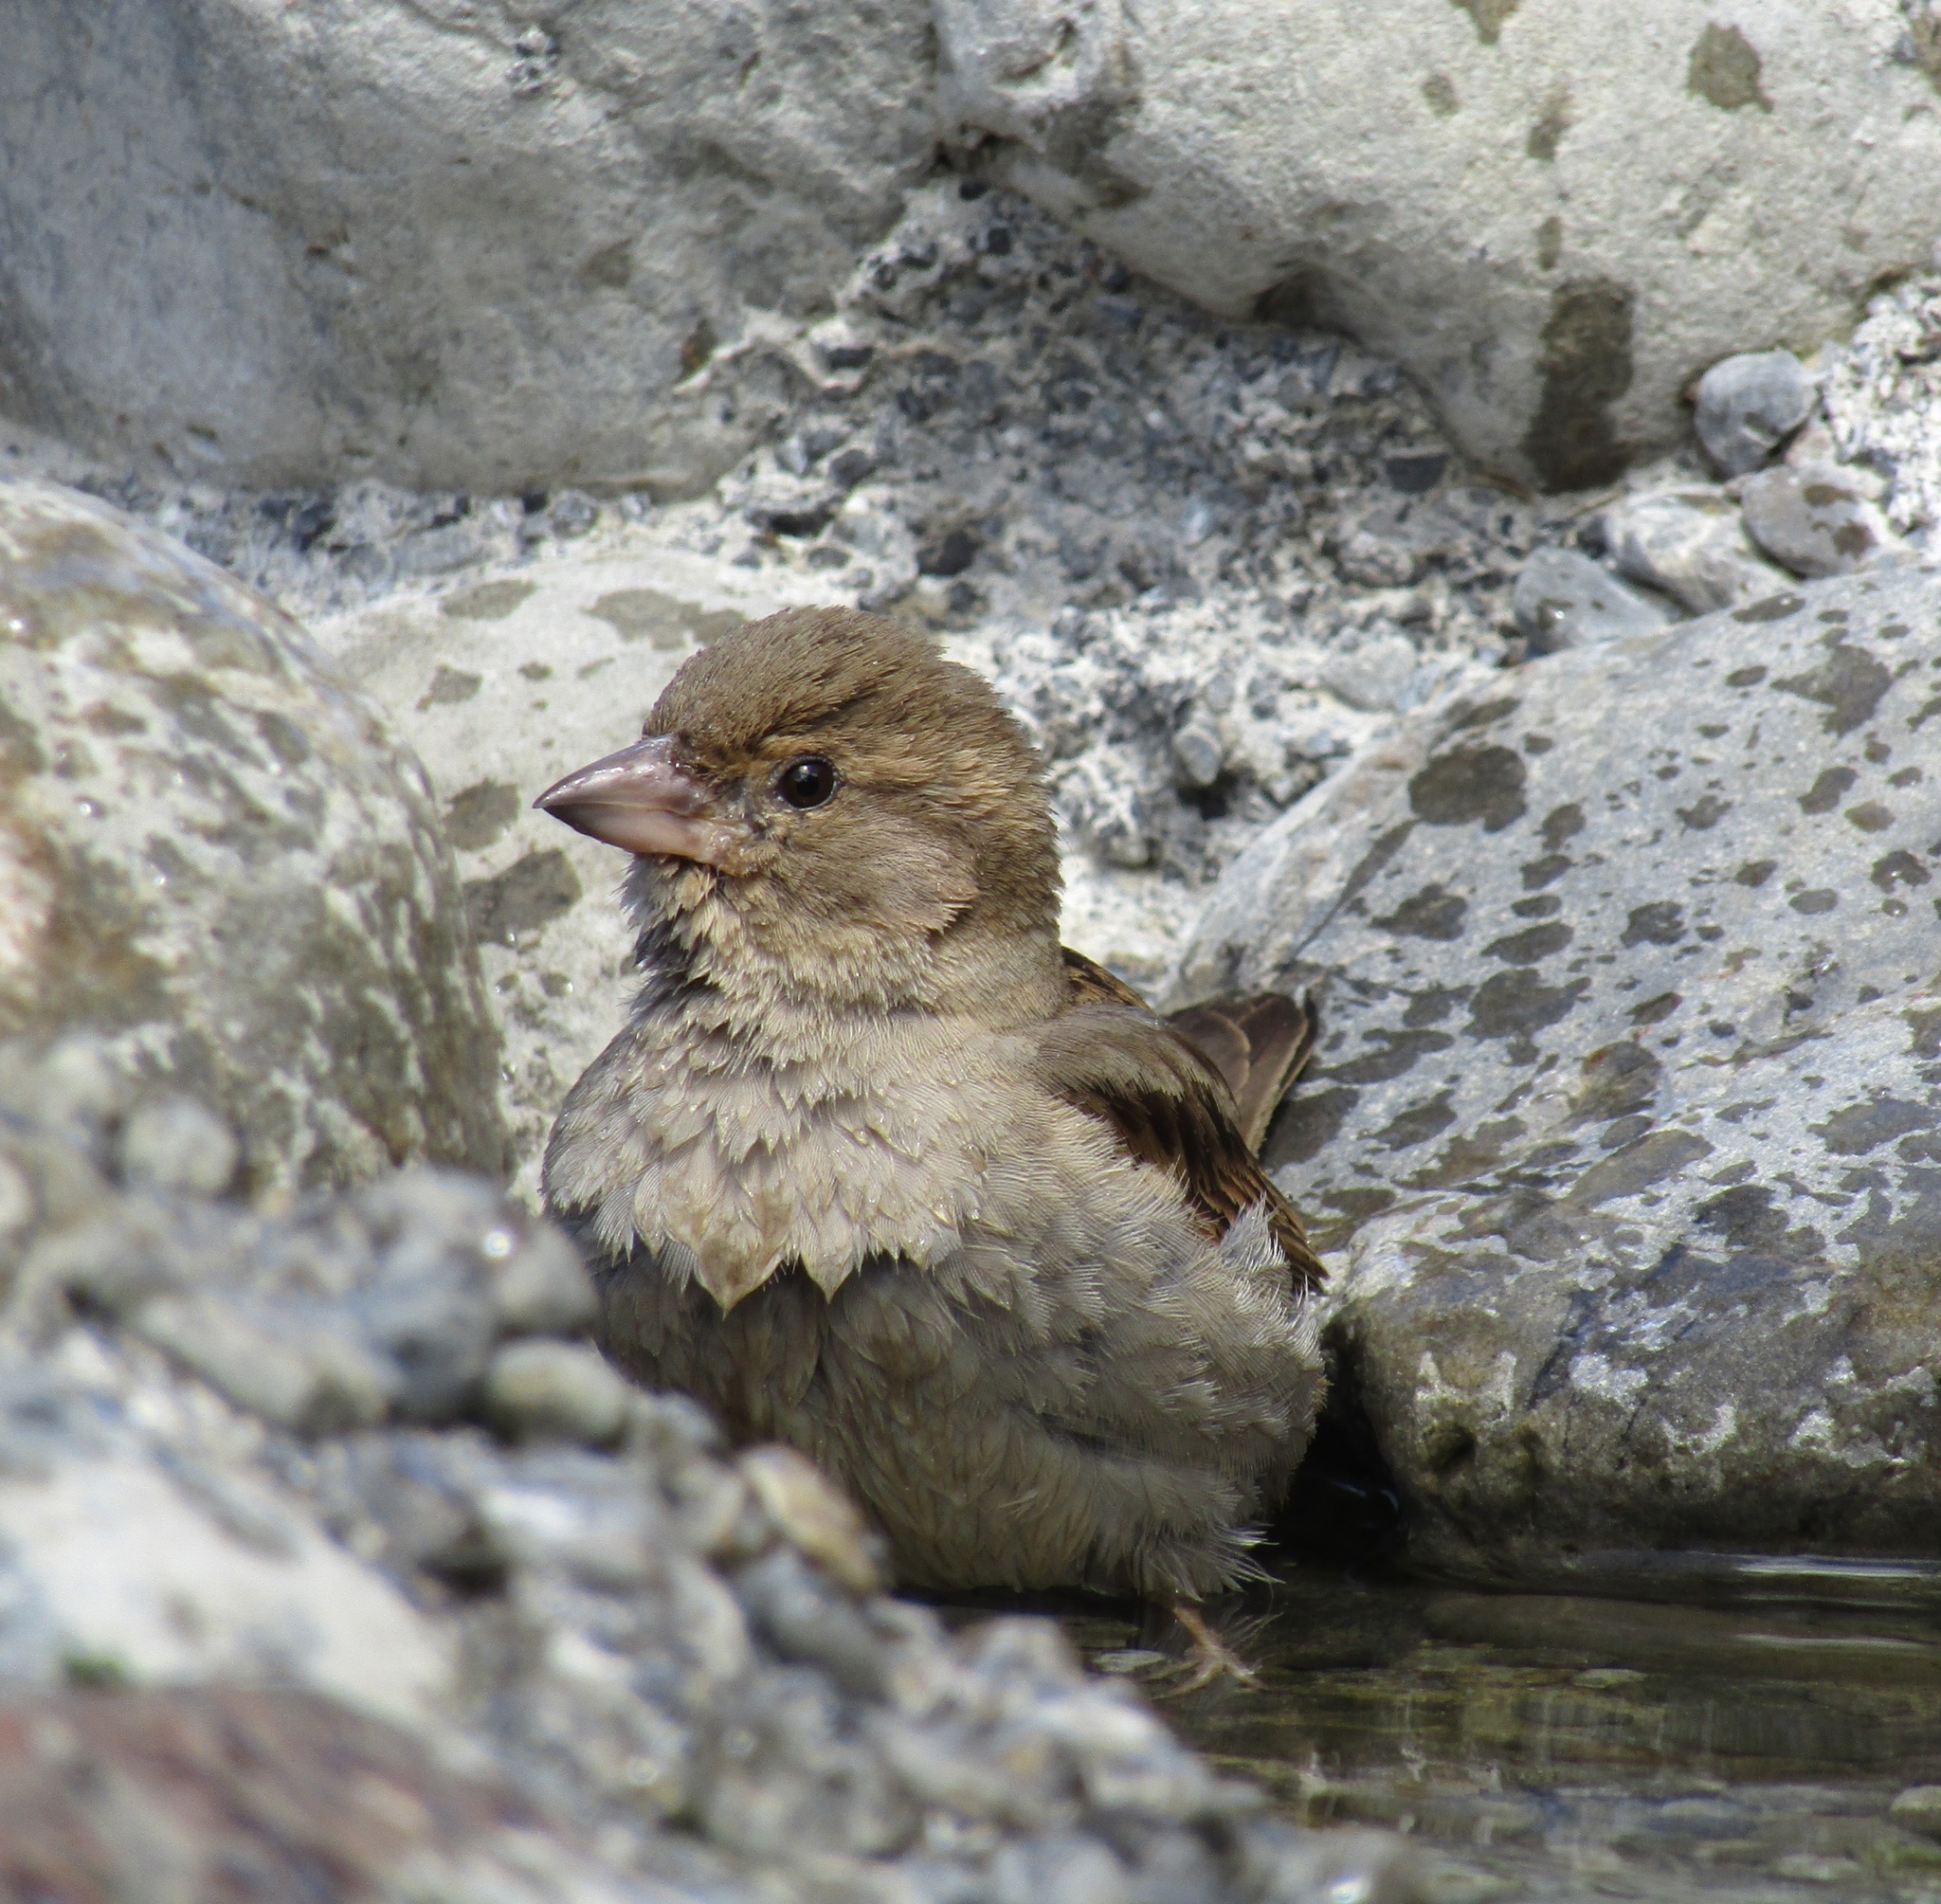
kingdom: Animalia
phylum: Chordata
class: Aves
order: Passeriformes
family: Passeridae
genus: Passer
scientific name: Passer domesticus
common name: House sparrow
